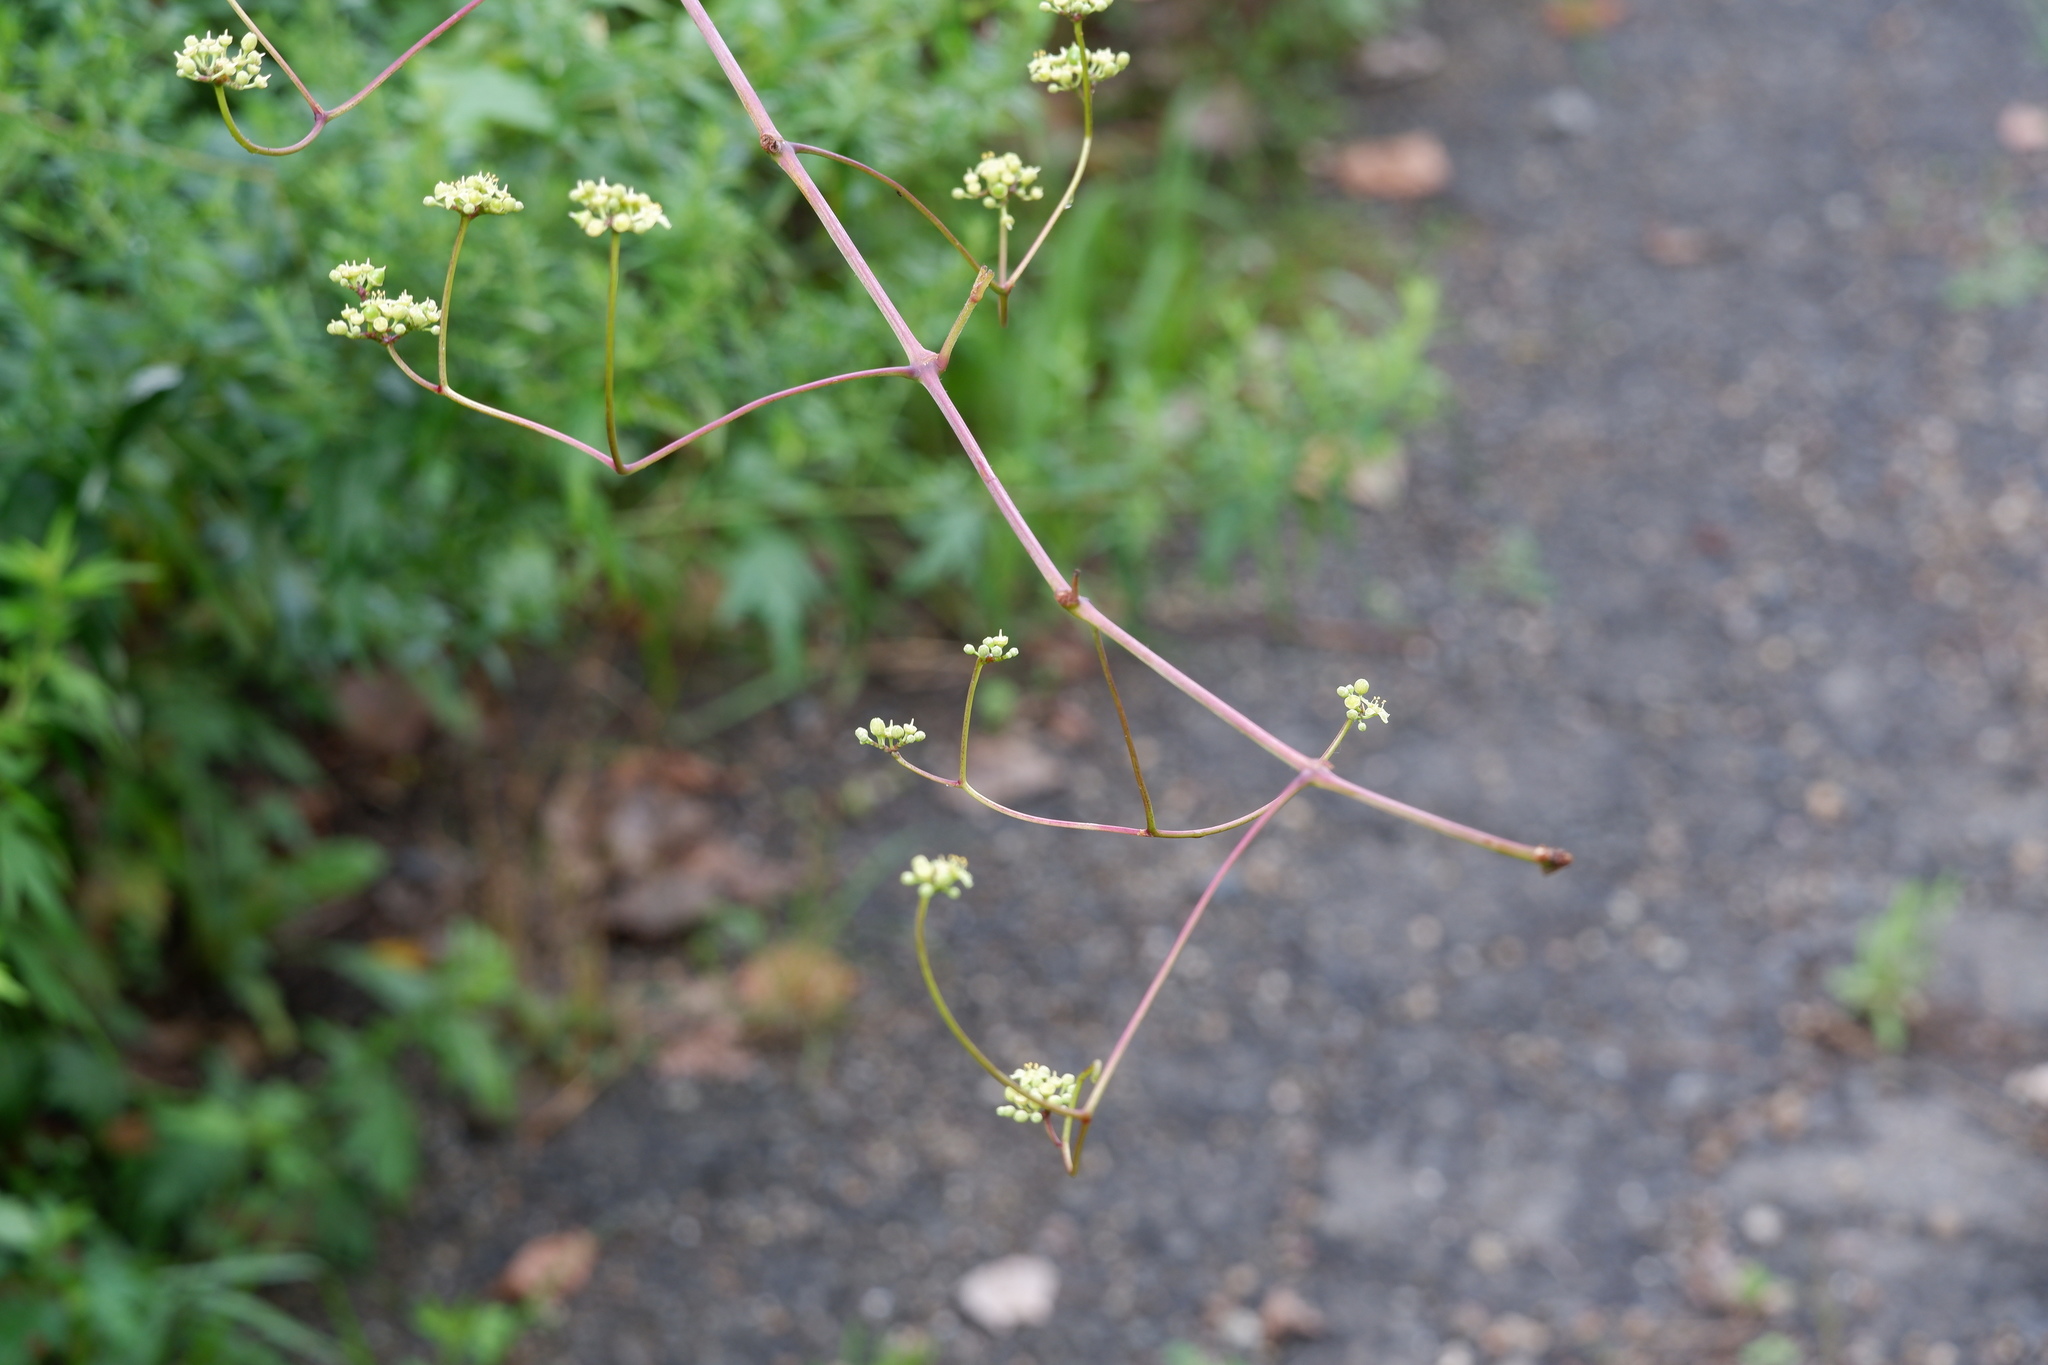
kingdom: Plantae
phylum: Tracheophyta
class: Magnoliopsida
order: Vitales
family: Vitaceae
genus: Ampelopsis
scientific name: Ampelopsis glandulosa
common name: Amur peppervine
